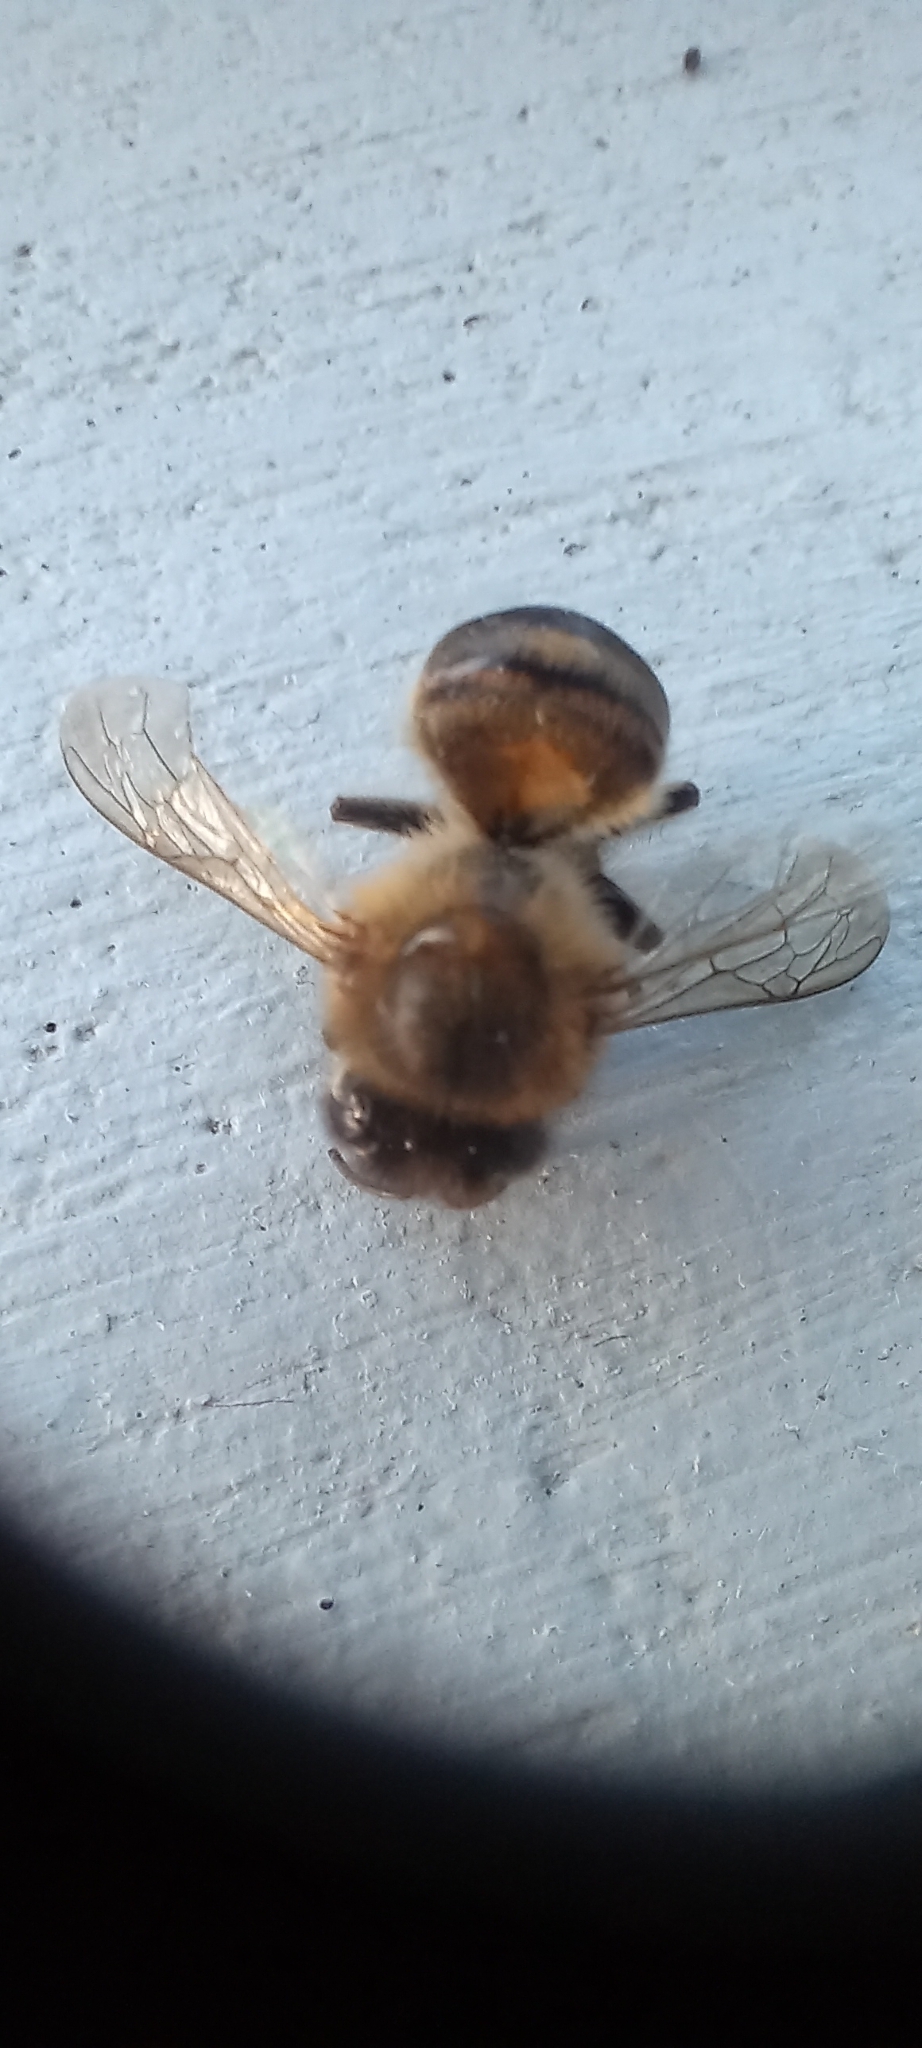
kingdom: Animalia
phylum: Arthropoda
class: Insecta
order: Hymenoptera
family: Apidae
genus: Apis
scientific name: Apis mellifera
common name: Honey bee
